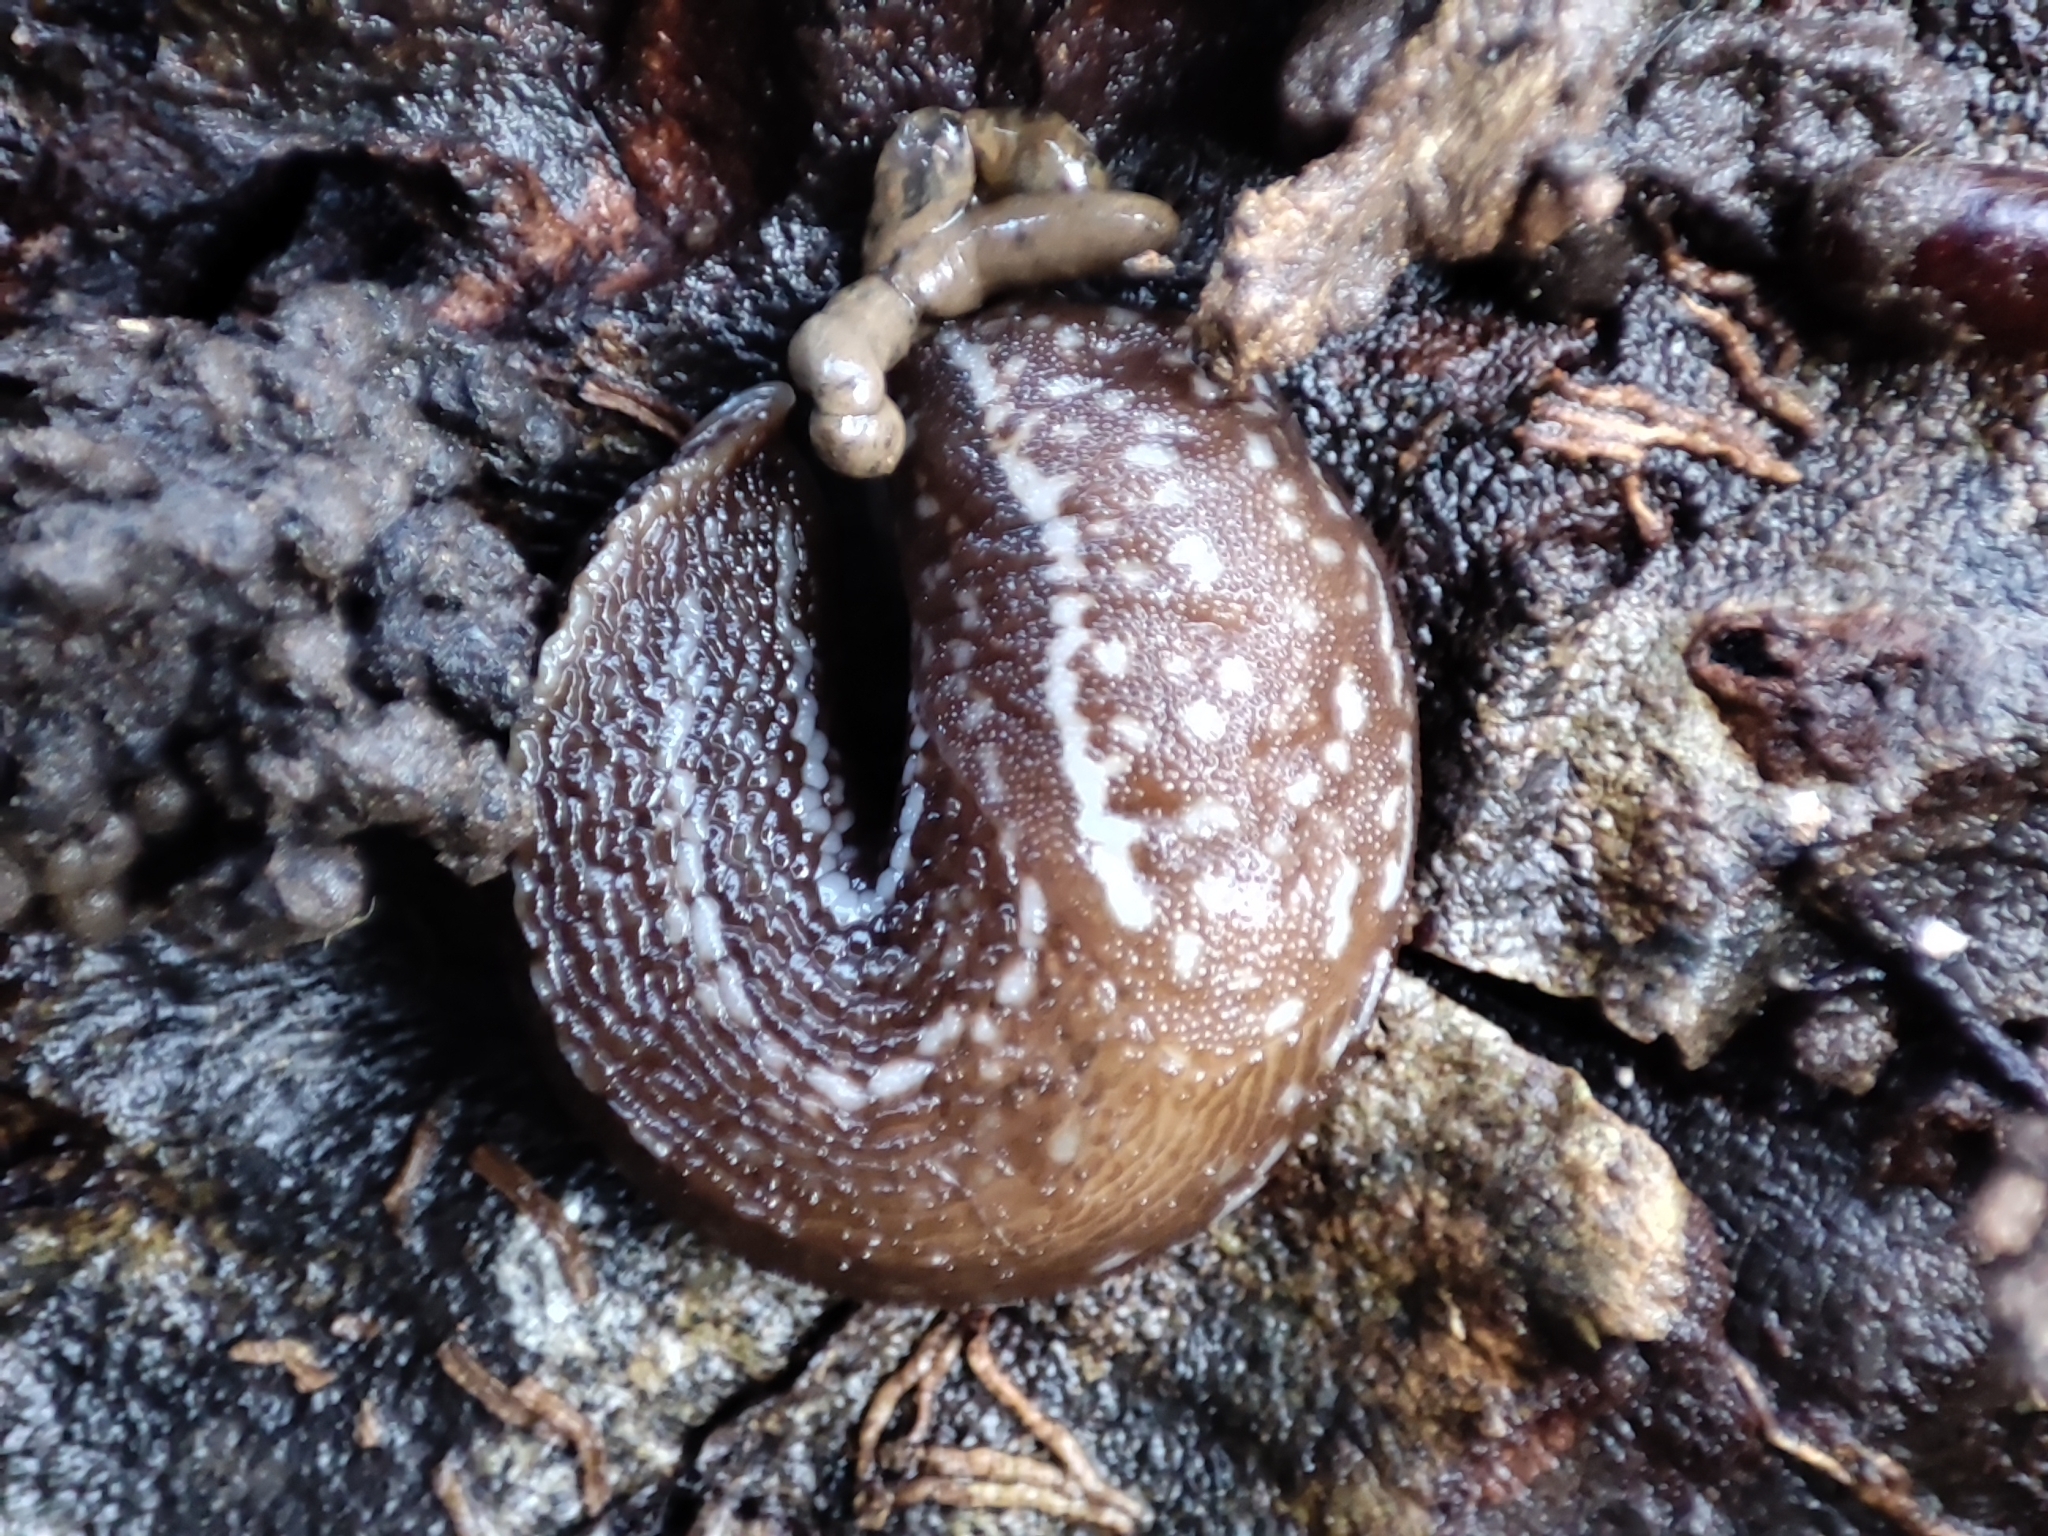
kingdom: Animalia
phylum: Mollusca
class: Gastropoda
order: Stylommatophora
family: Limacidae
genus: Eumilax
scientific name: Eumilax brandti
